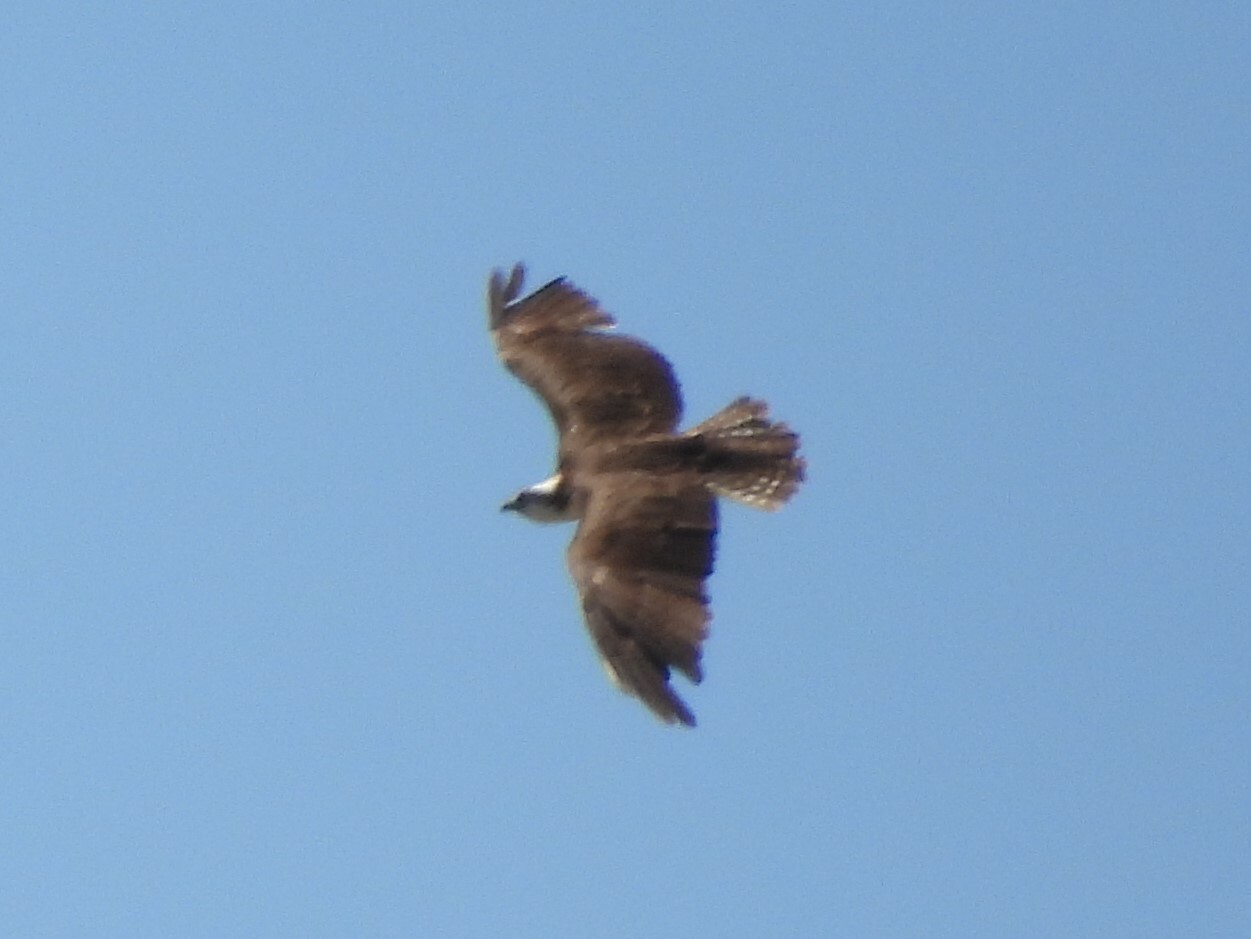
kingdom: Animalia
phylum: Chordata
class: Aves
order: Accipitriformes
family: Pandionidae
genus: Pandion
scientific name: Pandion haliaetus
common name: Osprey
